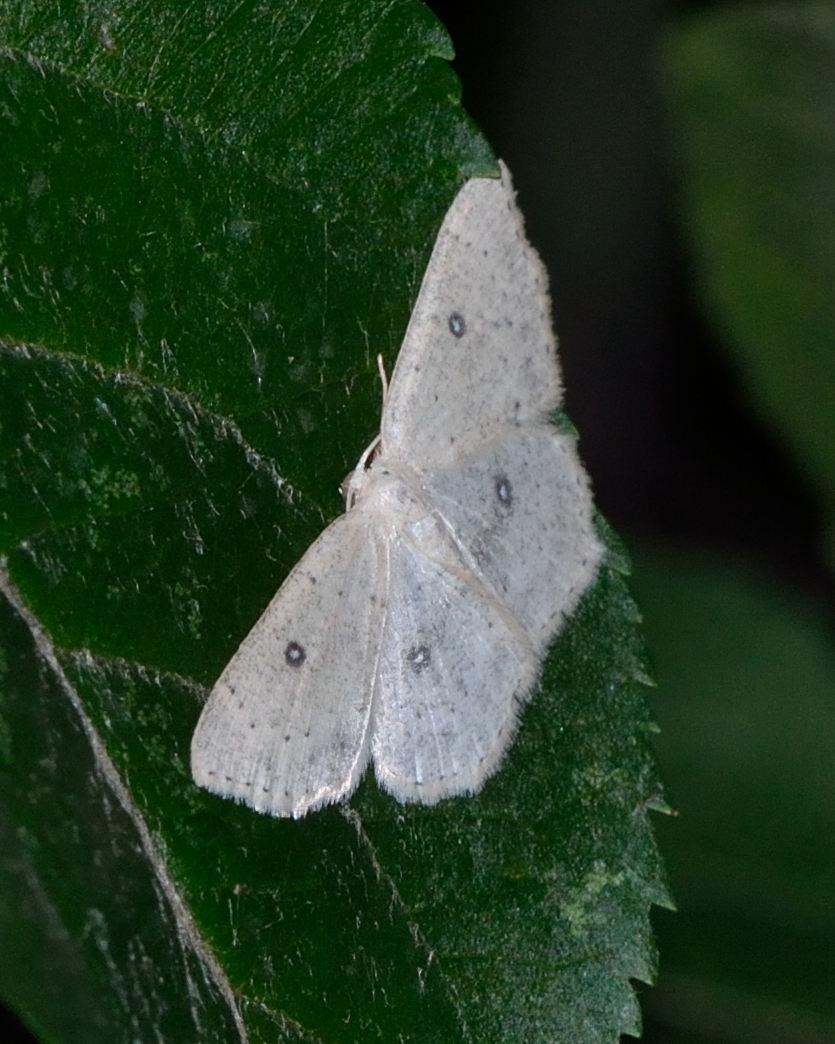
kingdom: Animalia
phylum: Arthropoda
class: Insecta
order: Lepidoptera
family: Geometridae
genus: Cyclophora
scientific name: Cyclophora albipunctata
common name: Birch mocha
